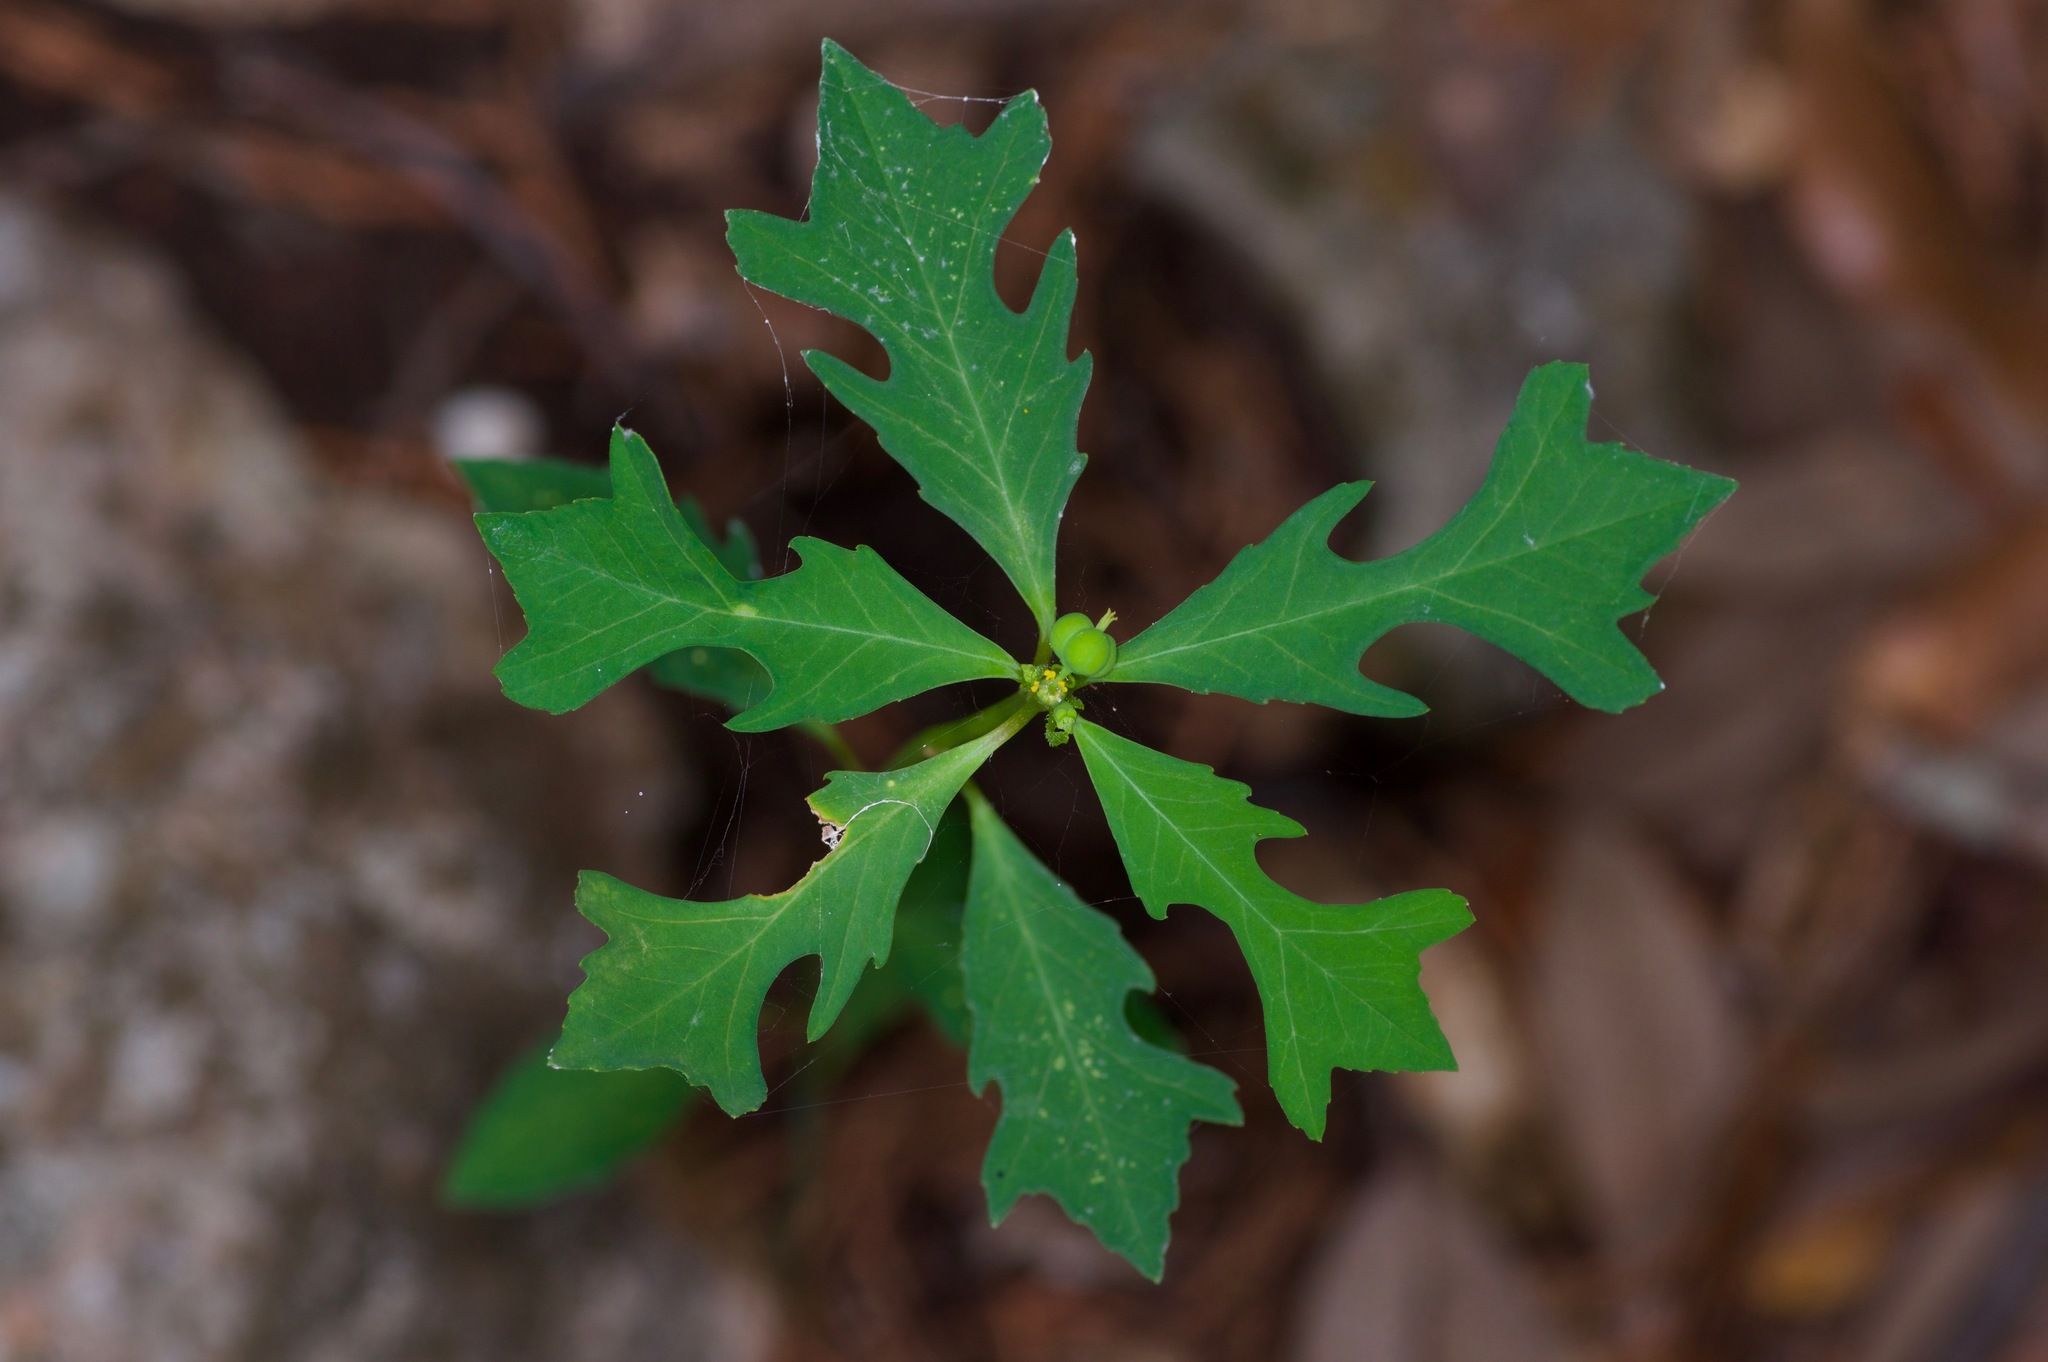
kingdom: Plantae
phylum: Tracheophyta
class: Magnoliopsida
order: Malpighiales
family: Euphorbiaceae
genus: Euphorbia
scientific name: Euphorbia heterophylla
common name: Mexican fireplant
